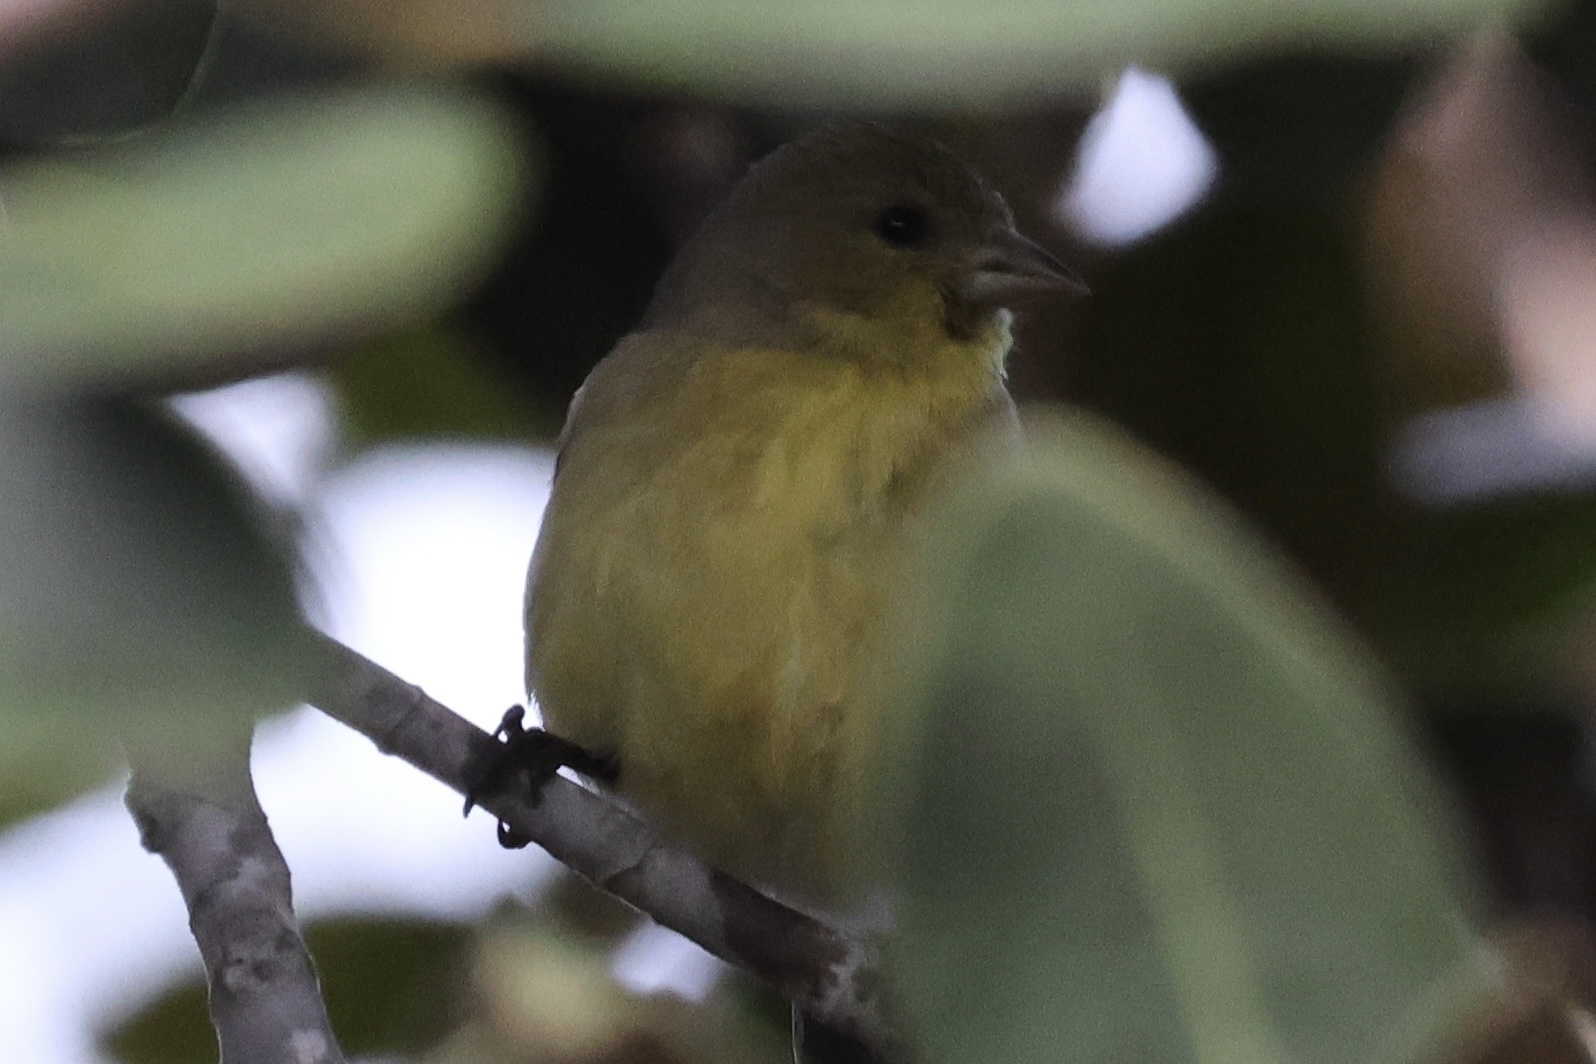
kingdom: Animalia
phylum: Chordata
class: Aves
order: Passeriformes
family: Fringillidae
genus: Spinus
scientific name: Spinus psaltria
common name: Lesser goldfinch
